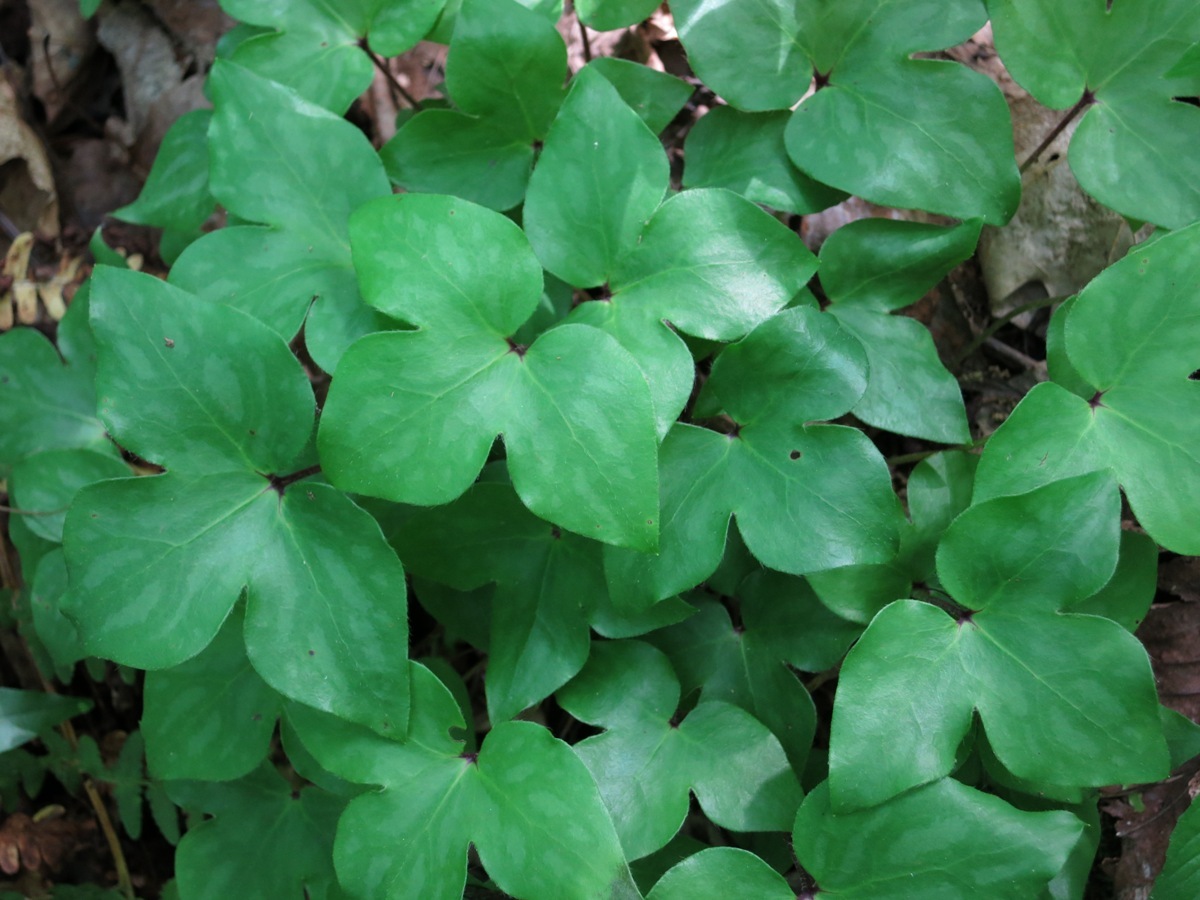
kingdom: Plantae
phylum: Tracheophyta
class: Magnoliopsida
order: Ranunculales
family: Ranunculaceae
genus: Hepatica
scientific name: Hepatica acutiloba
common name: Sharp-lobed hepatica
